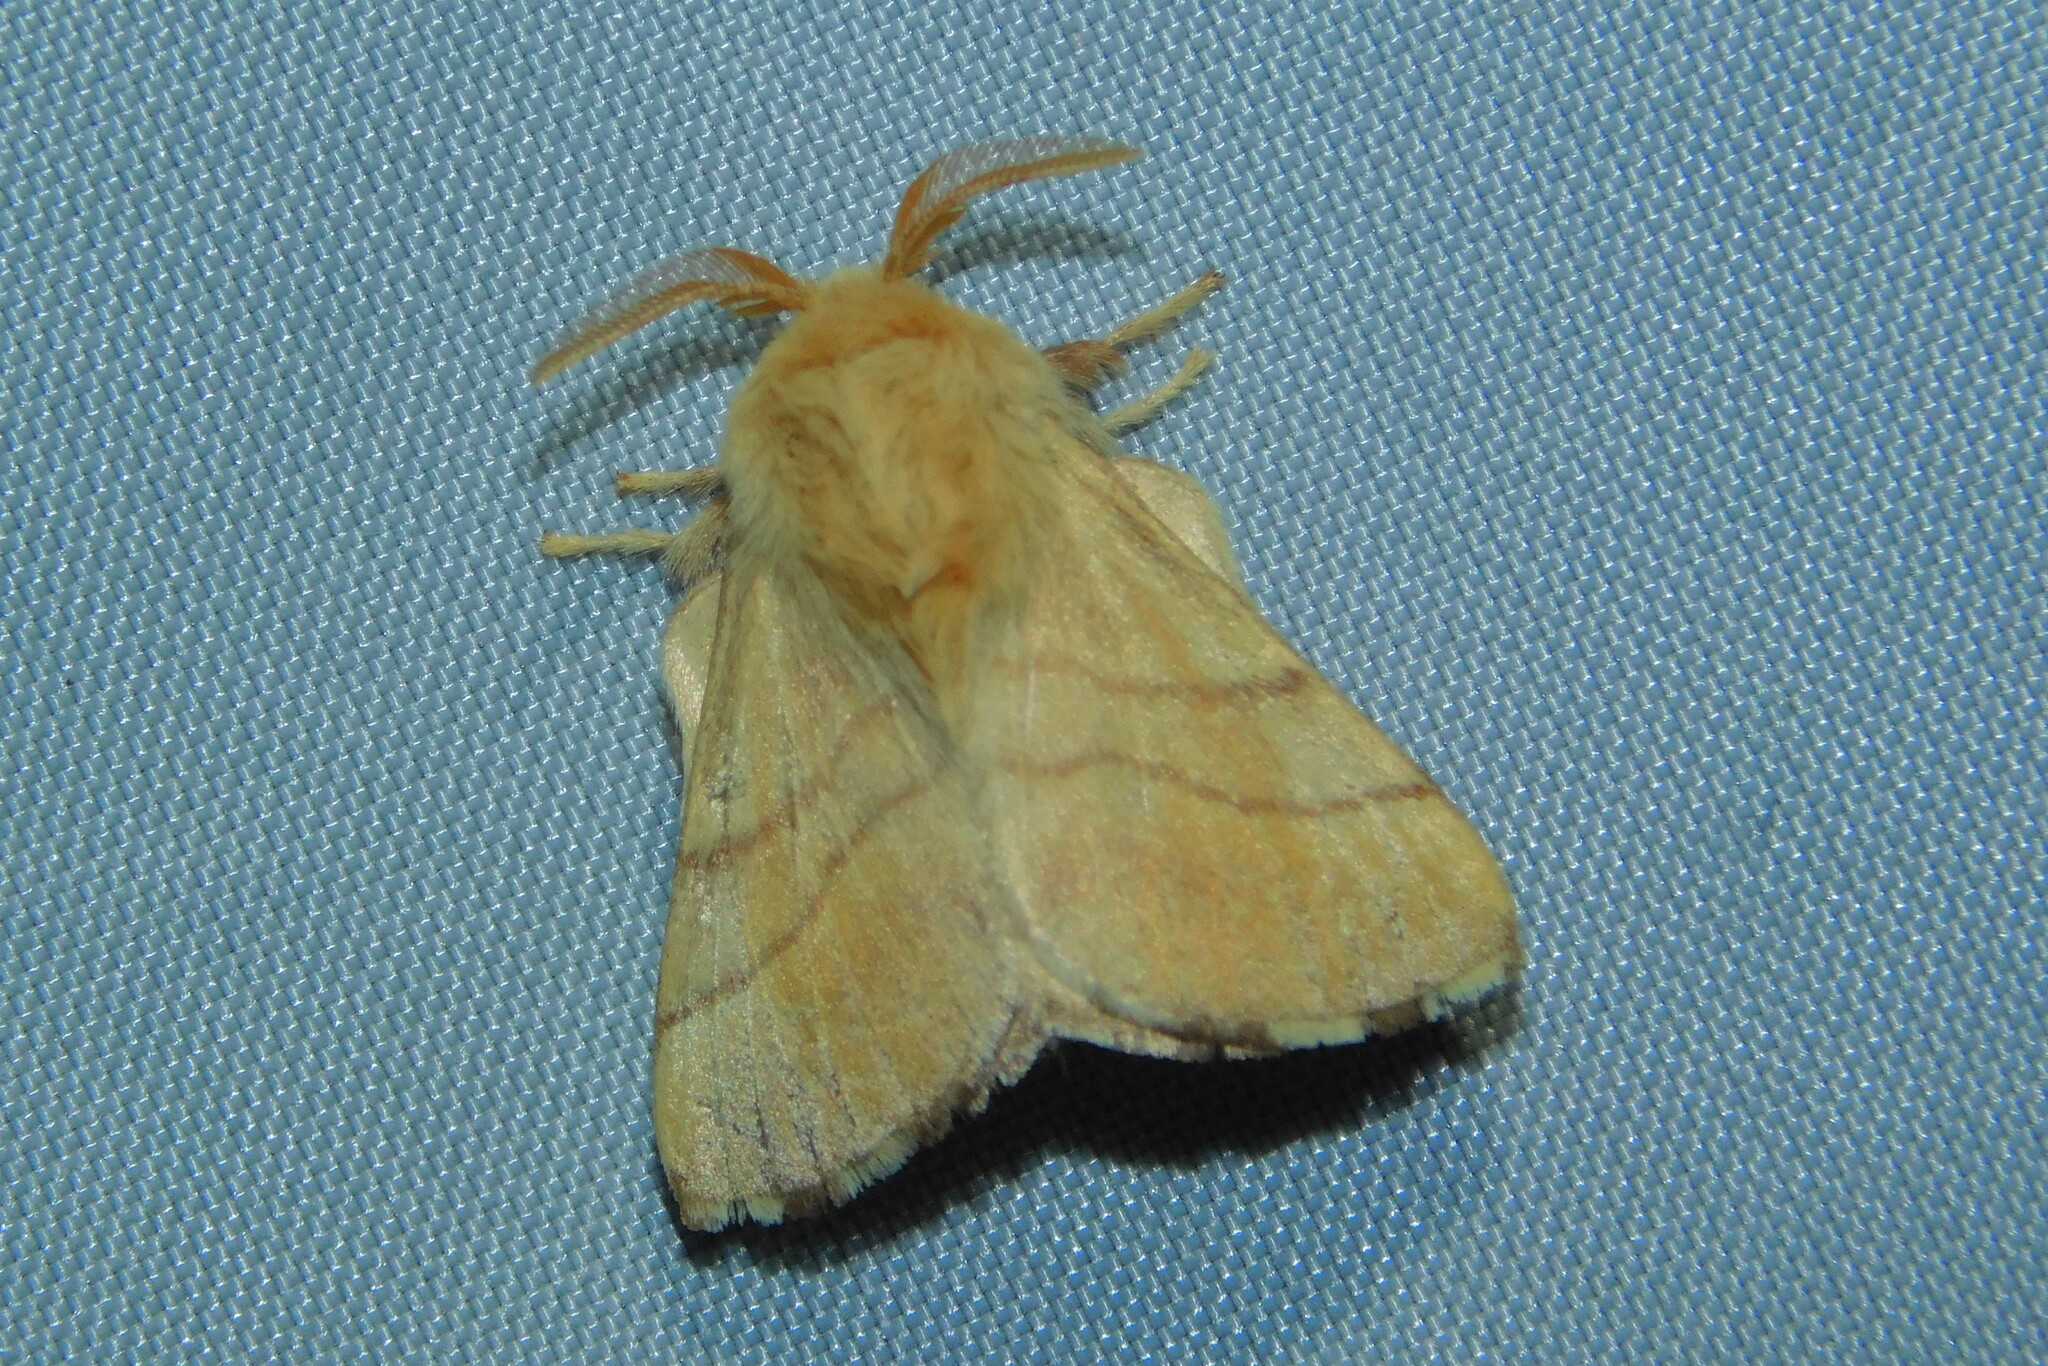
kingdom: Animalia
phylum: Arthropoda
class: Insecta
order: Lepidoptera
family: Lasiocampidae
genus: Malacosoma
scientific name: Malacosoma neustria
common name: The lackey
